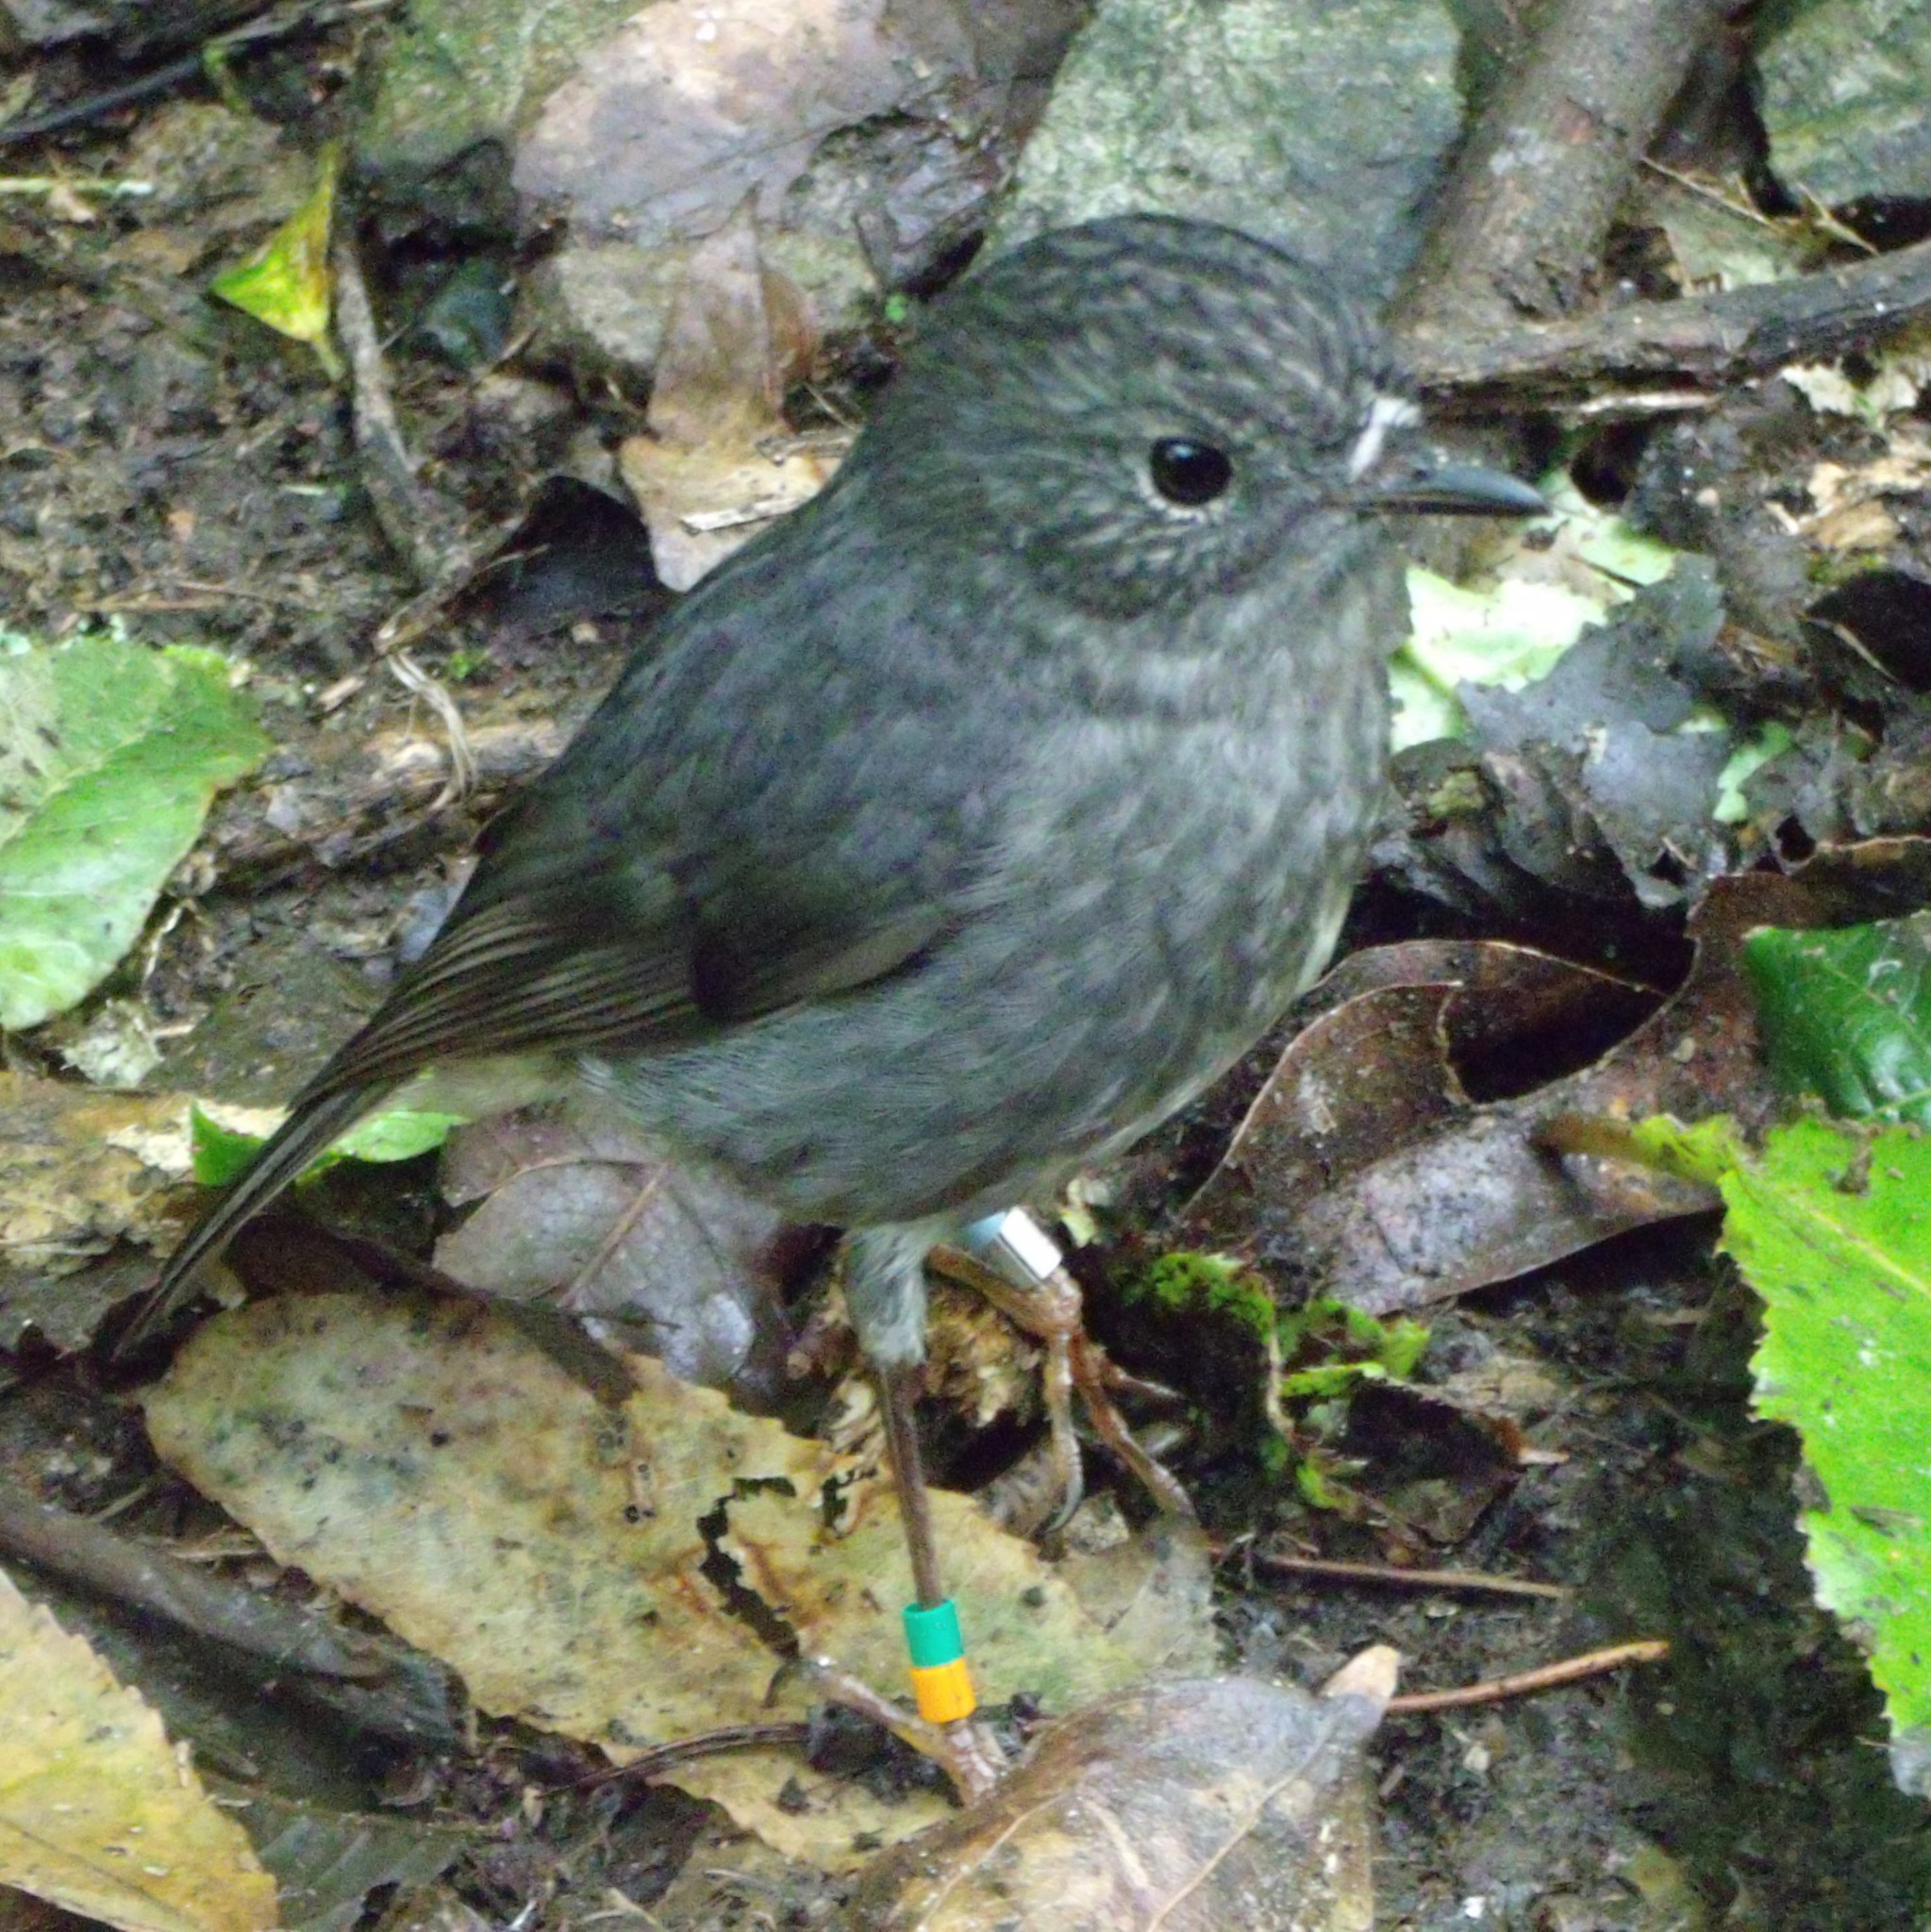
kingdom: Animalia
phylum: Chordata
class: Aves
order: Passeriformes
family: Petroicidae
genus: Petroica
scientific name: Petroica australis
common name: New zealand robin
